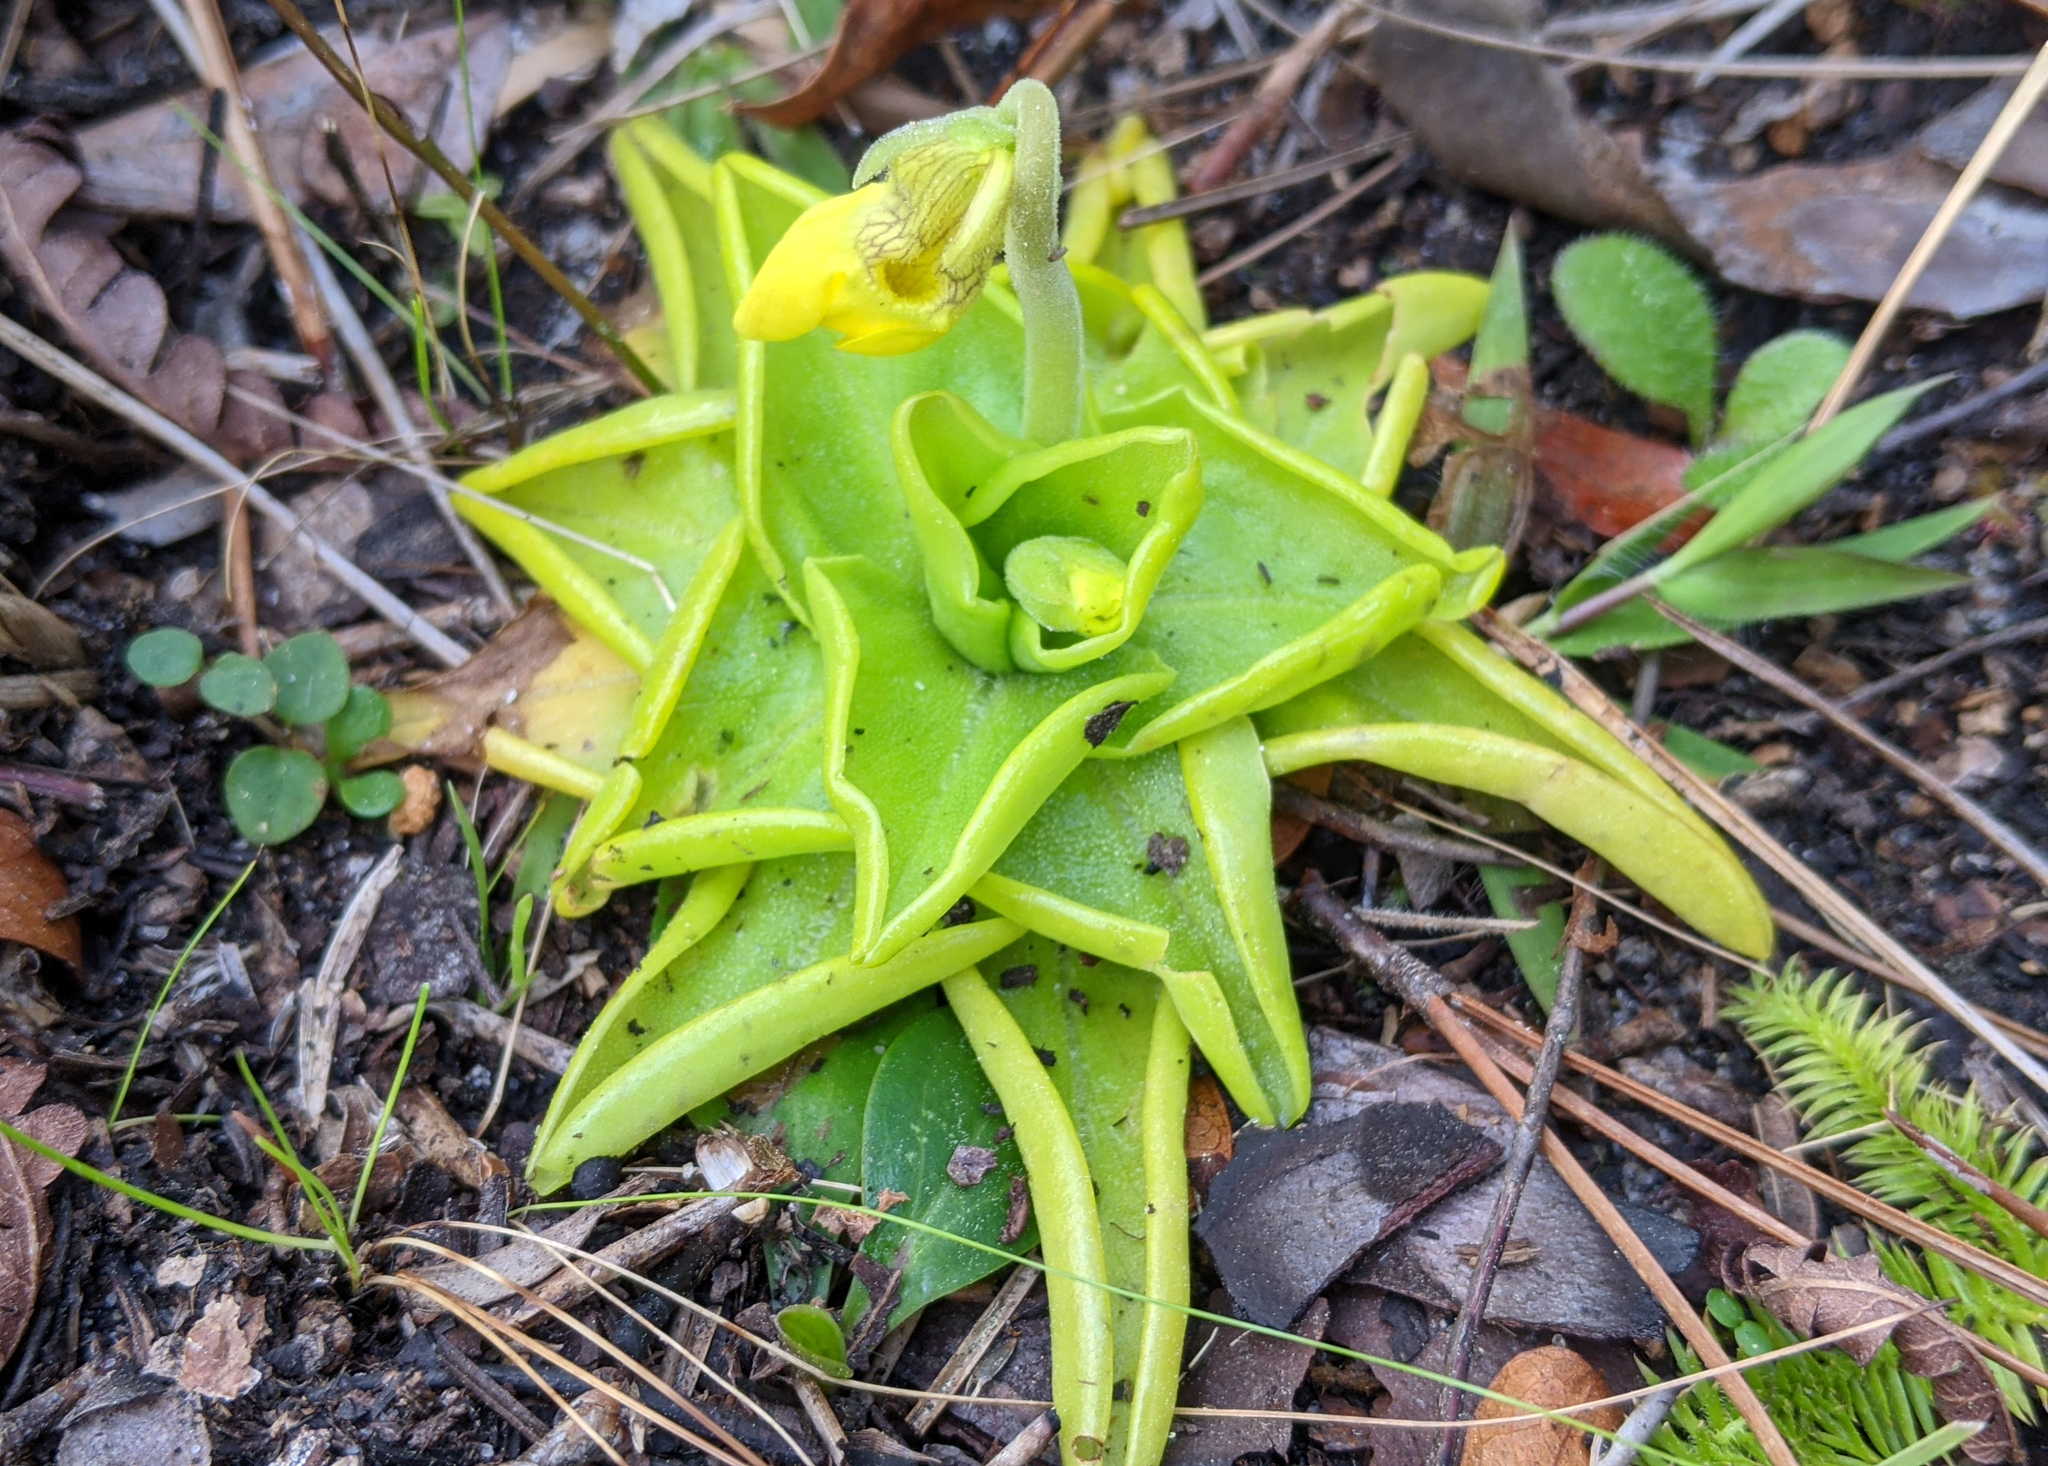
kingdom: Plantae
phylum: Tracheophyta
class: Magnoliopsida
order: Lamiales
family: Lentibulariaceae
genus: Pinguicula
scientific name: Pinguicula lutea
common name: Yellow butterwort
